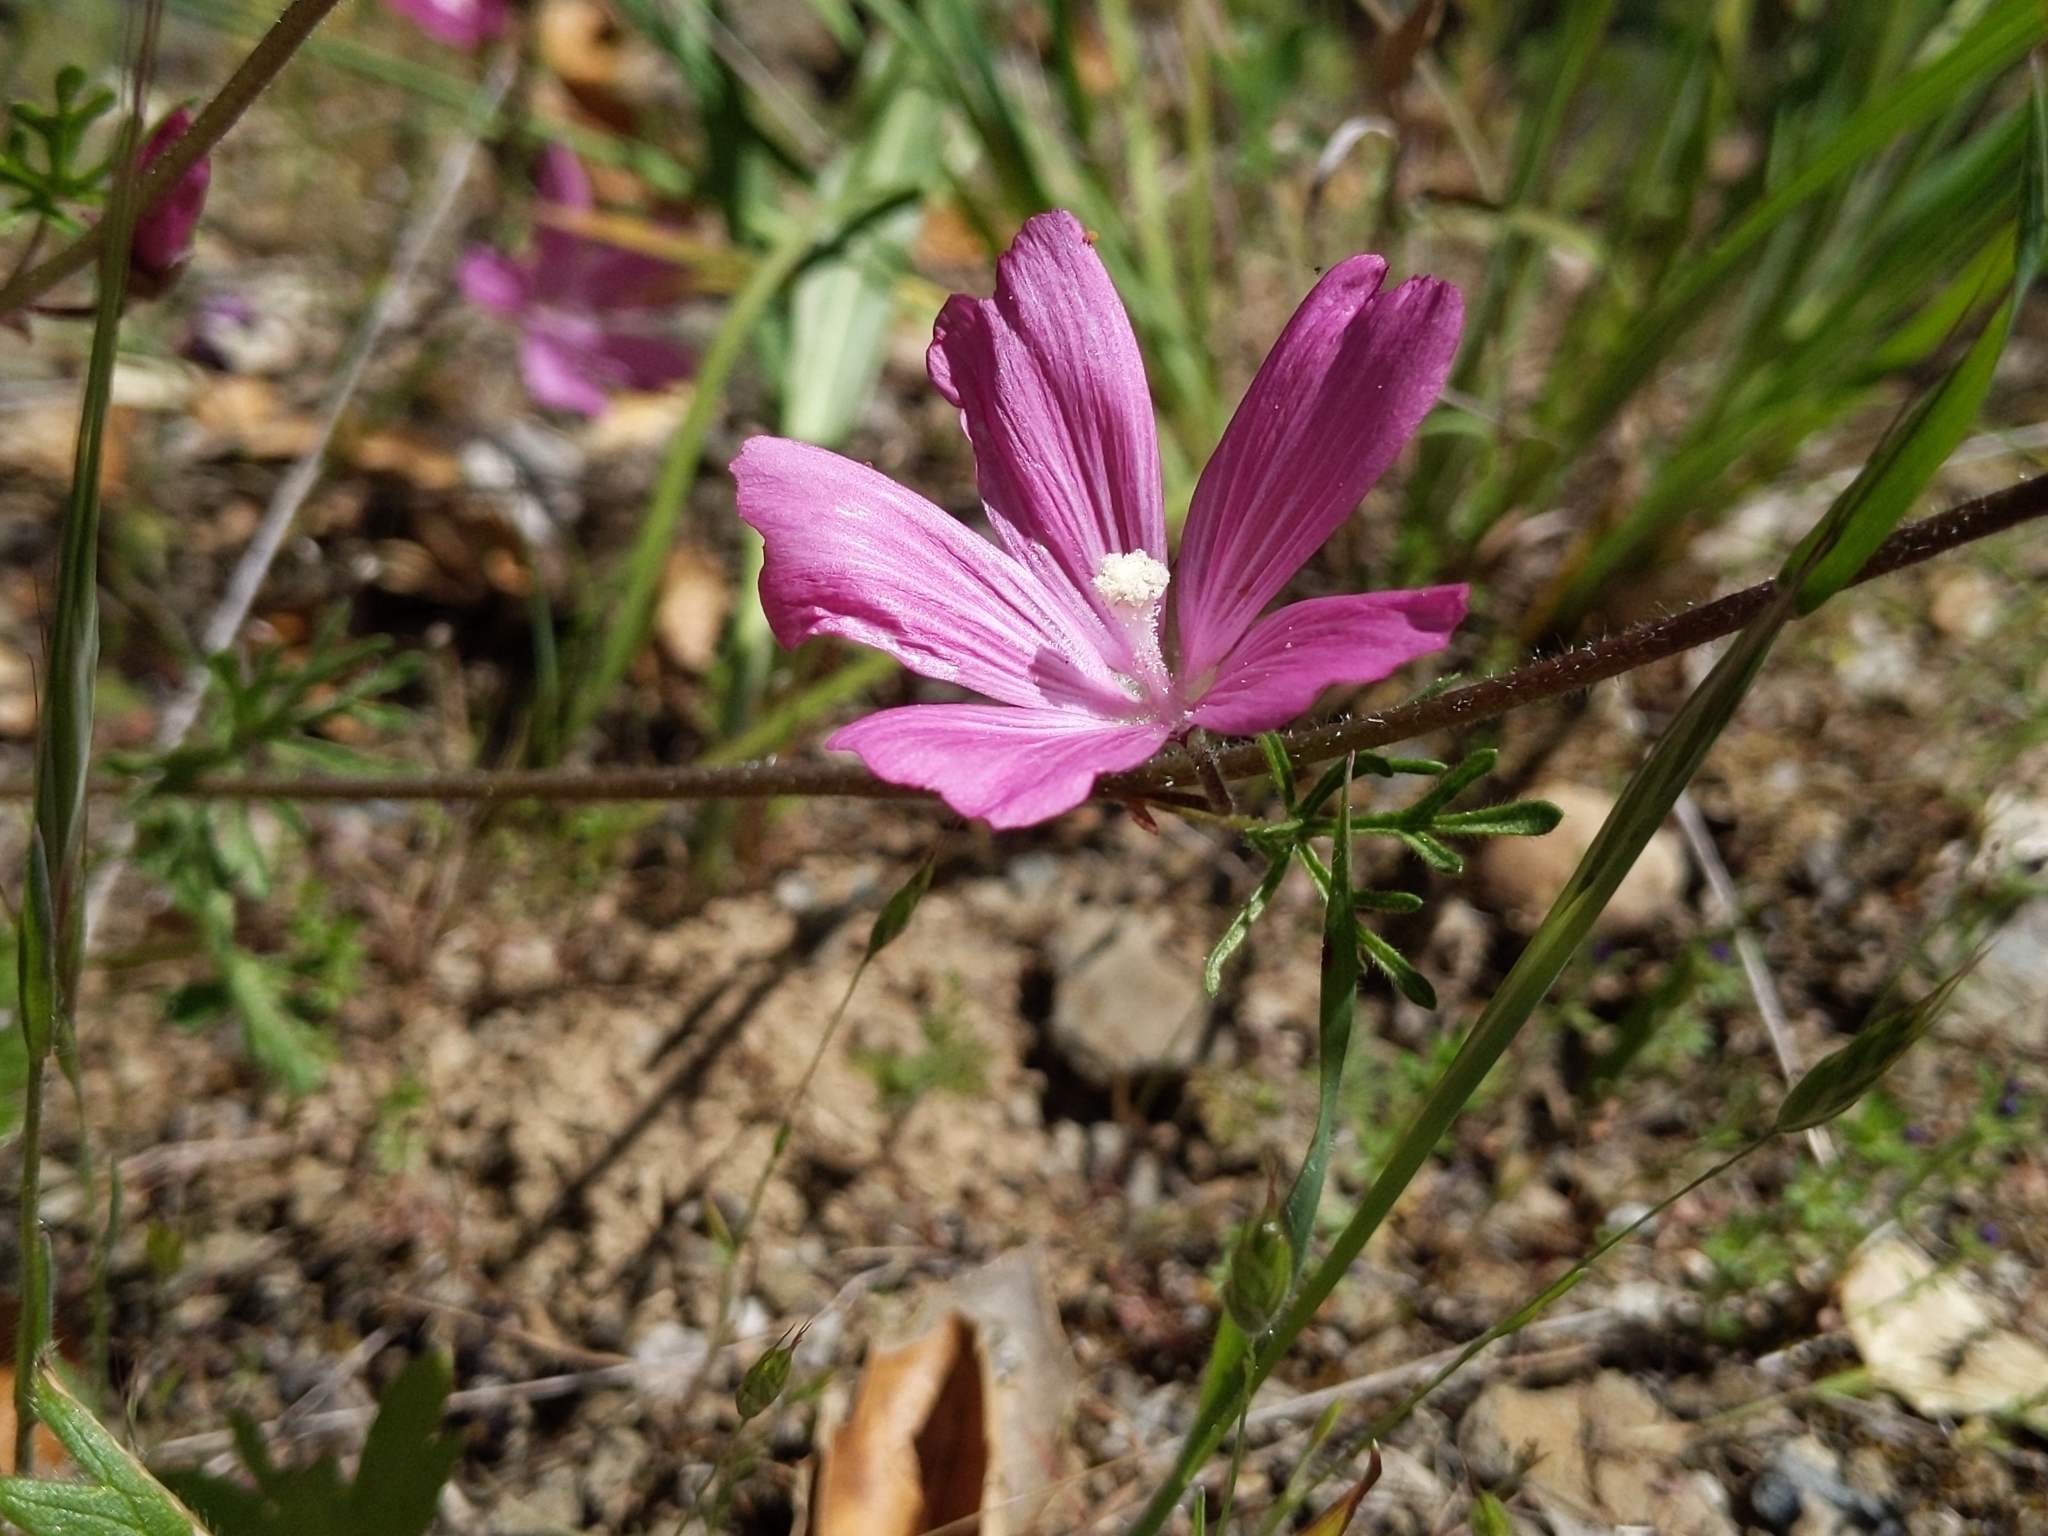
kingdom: Plantae
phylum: Tracheophyta
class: Magnoliopsida
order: Malvales
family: Malvaceae
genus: Sidalcea
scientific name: Sidalcea malviflora
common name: Greek mallow
